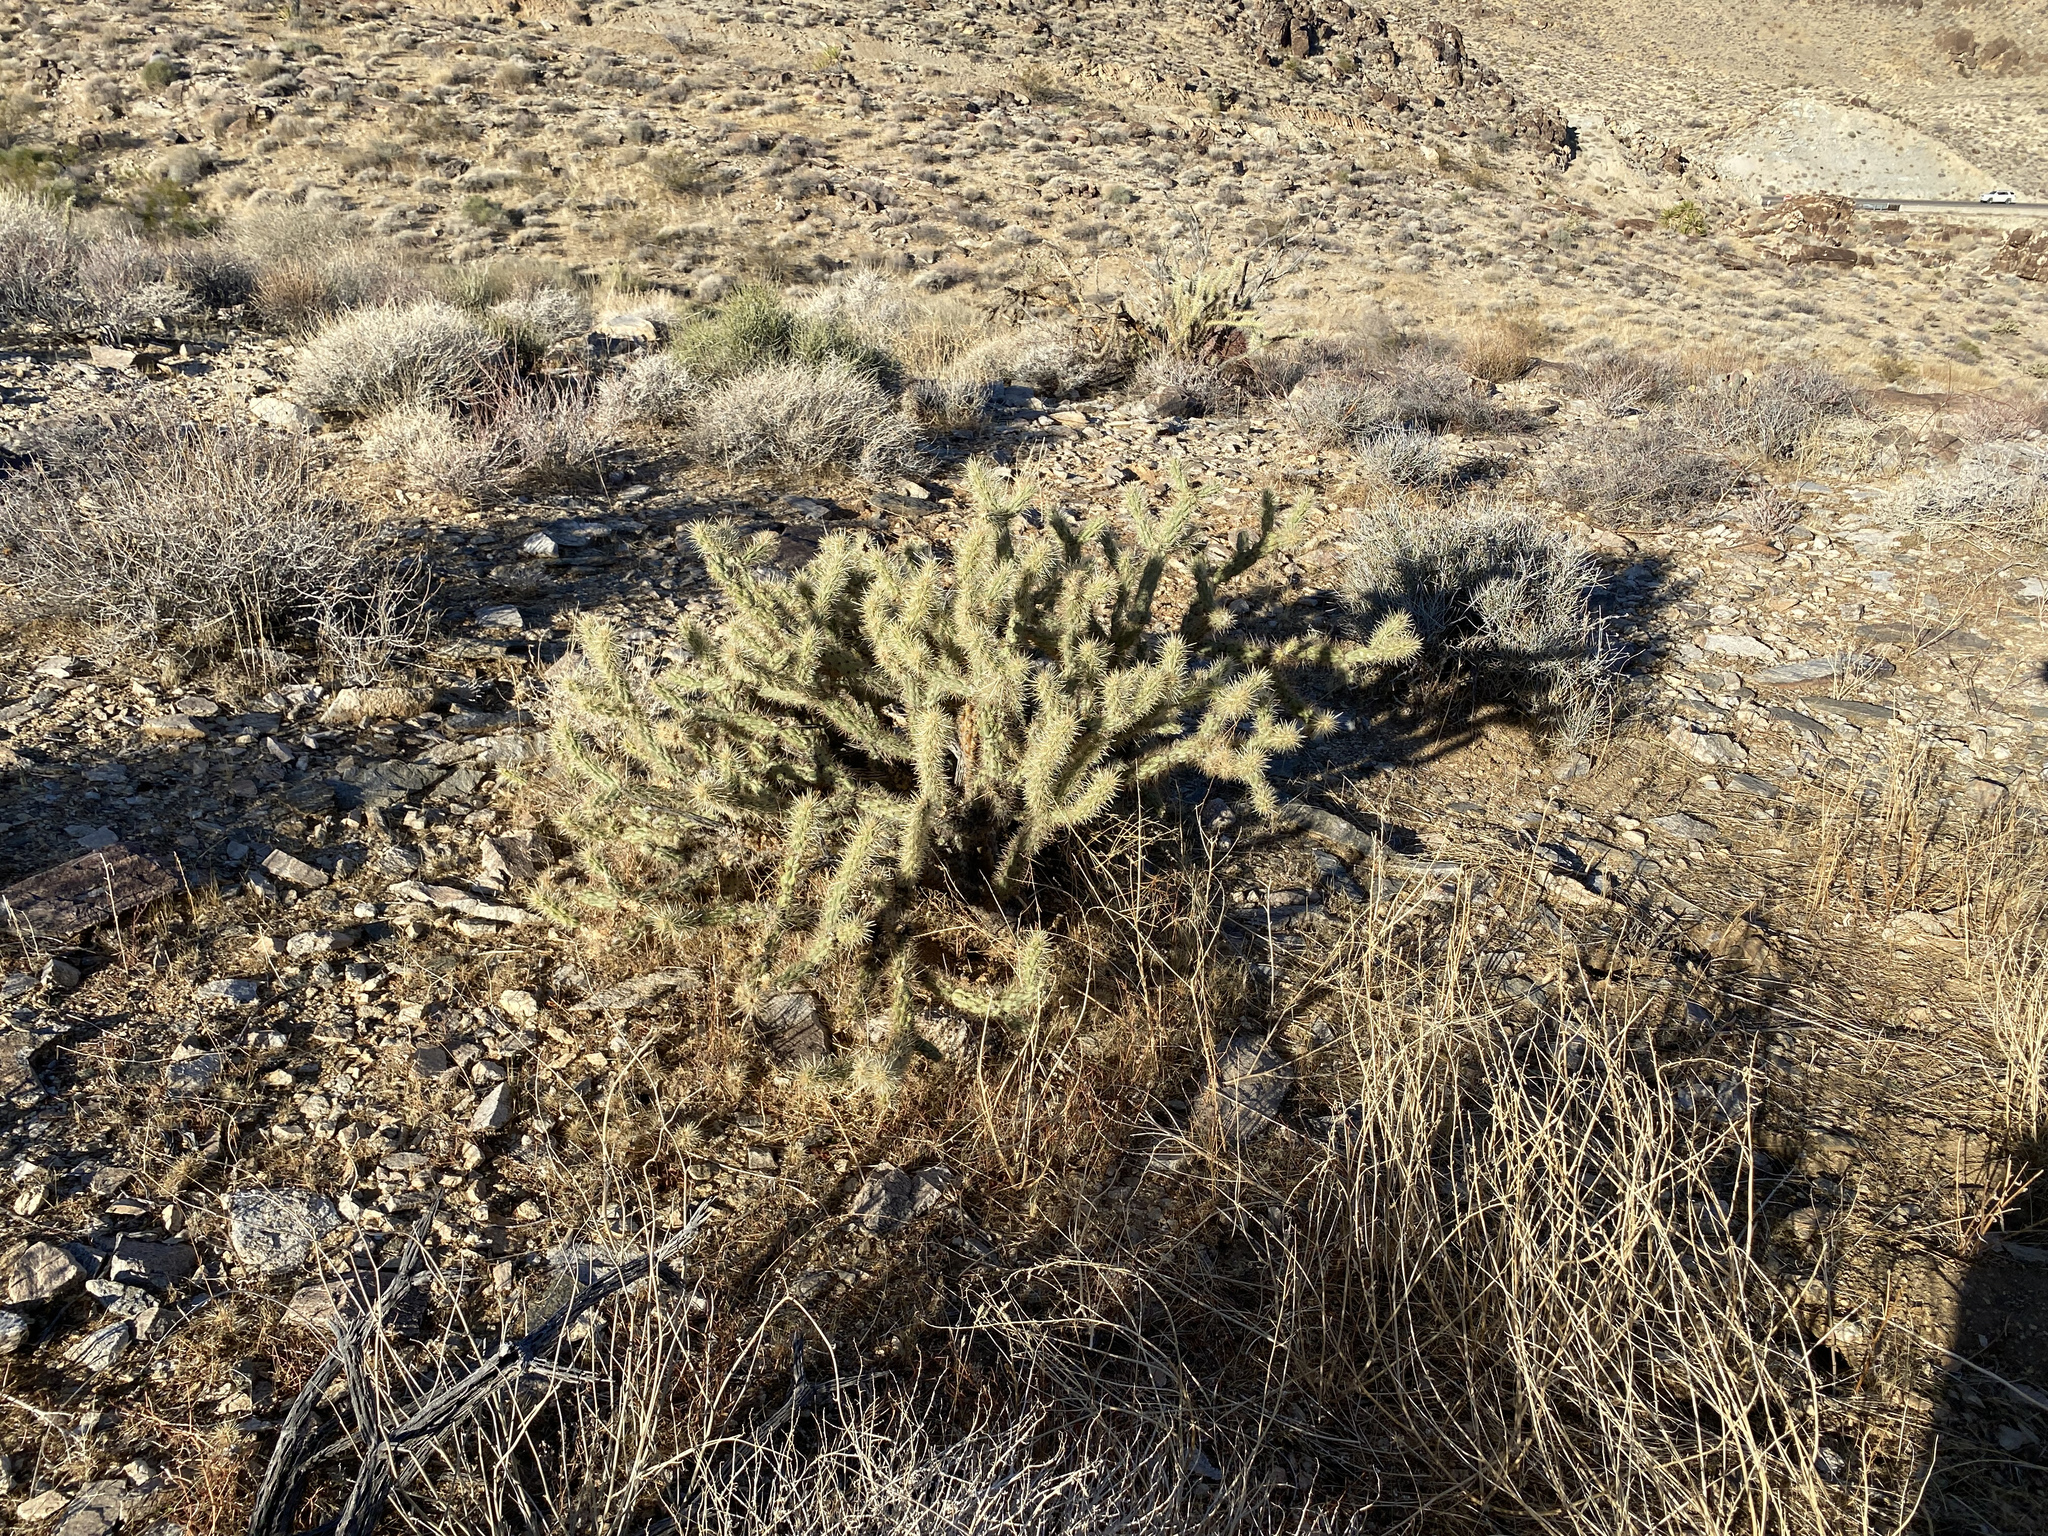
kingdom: Plantae
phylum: Tracheophyta
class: Magnoliopsida
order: Caryophyllales
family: Cactaceae
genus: Cylindropuntia
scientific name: Cylindropuntia acanthocarpa
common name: Buckhorn cholla
